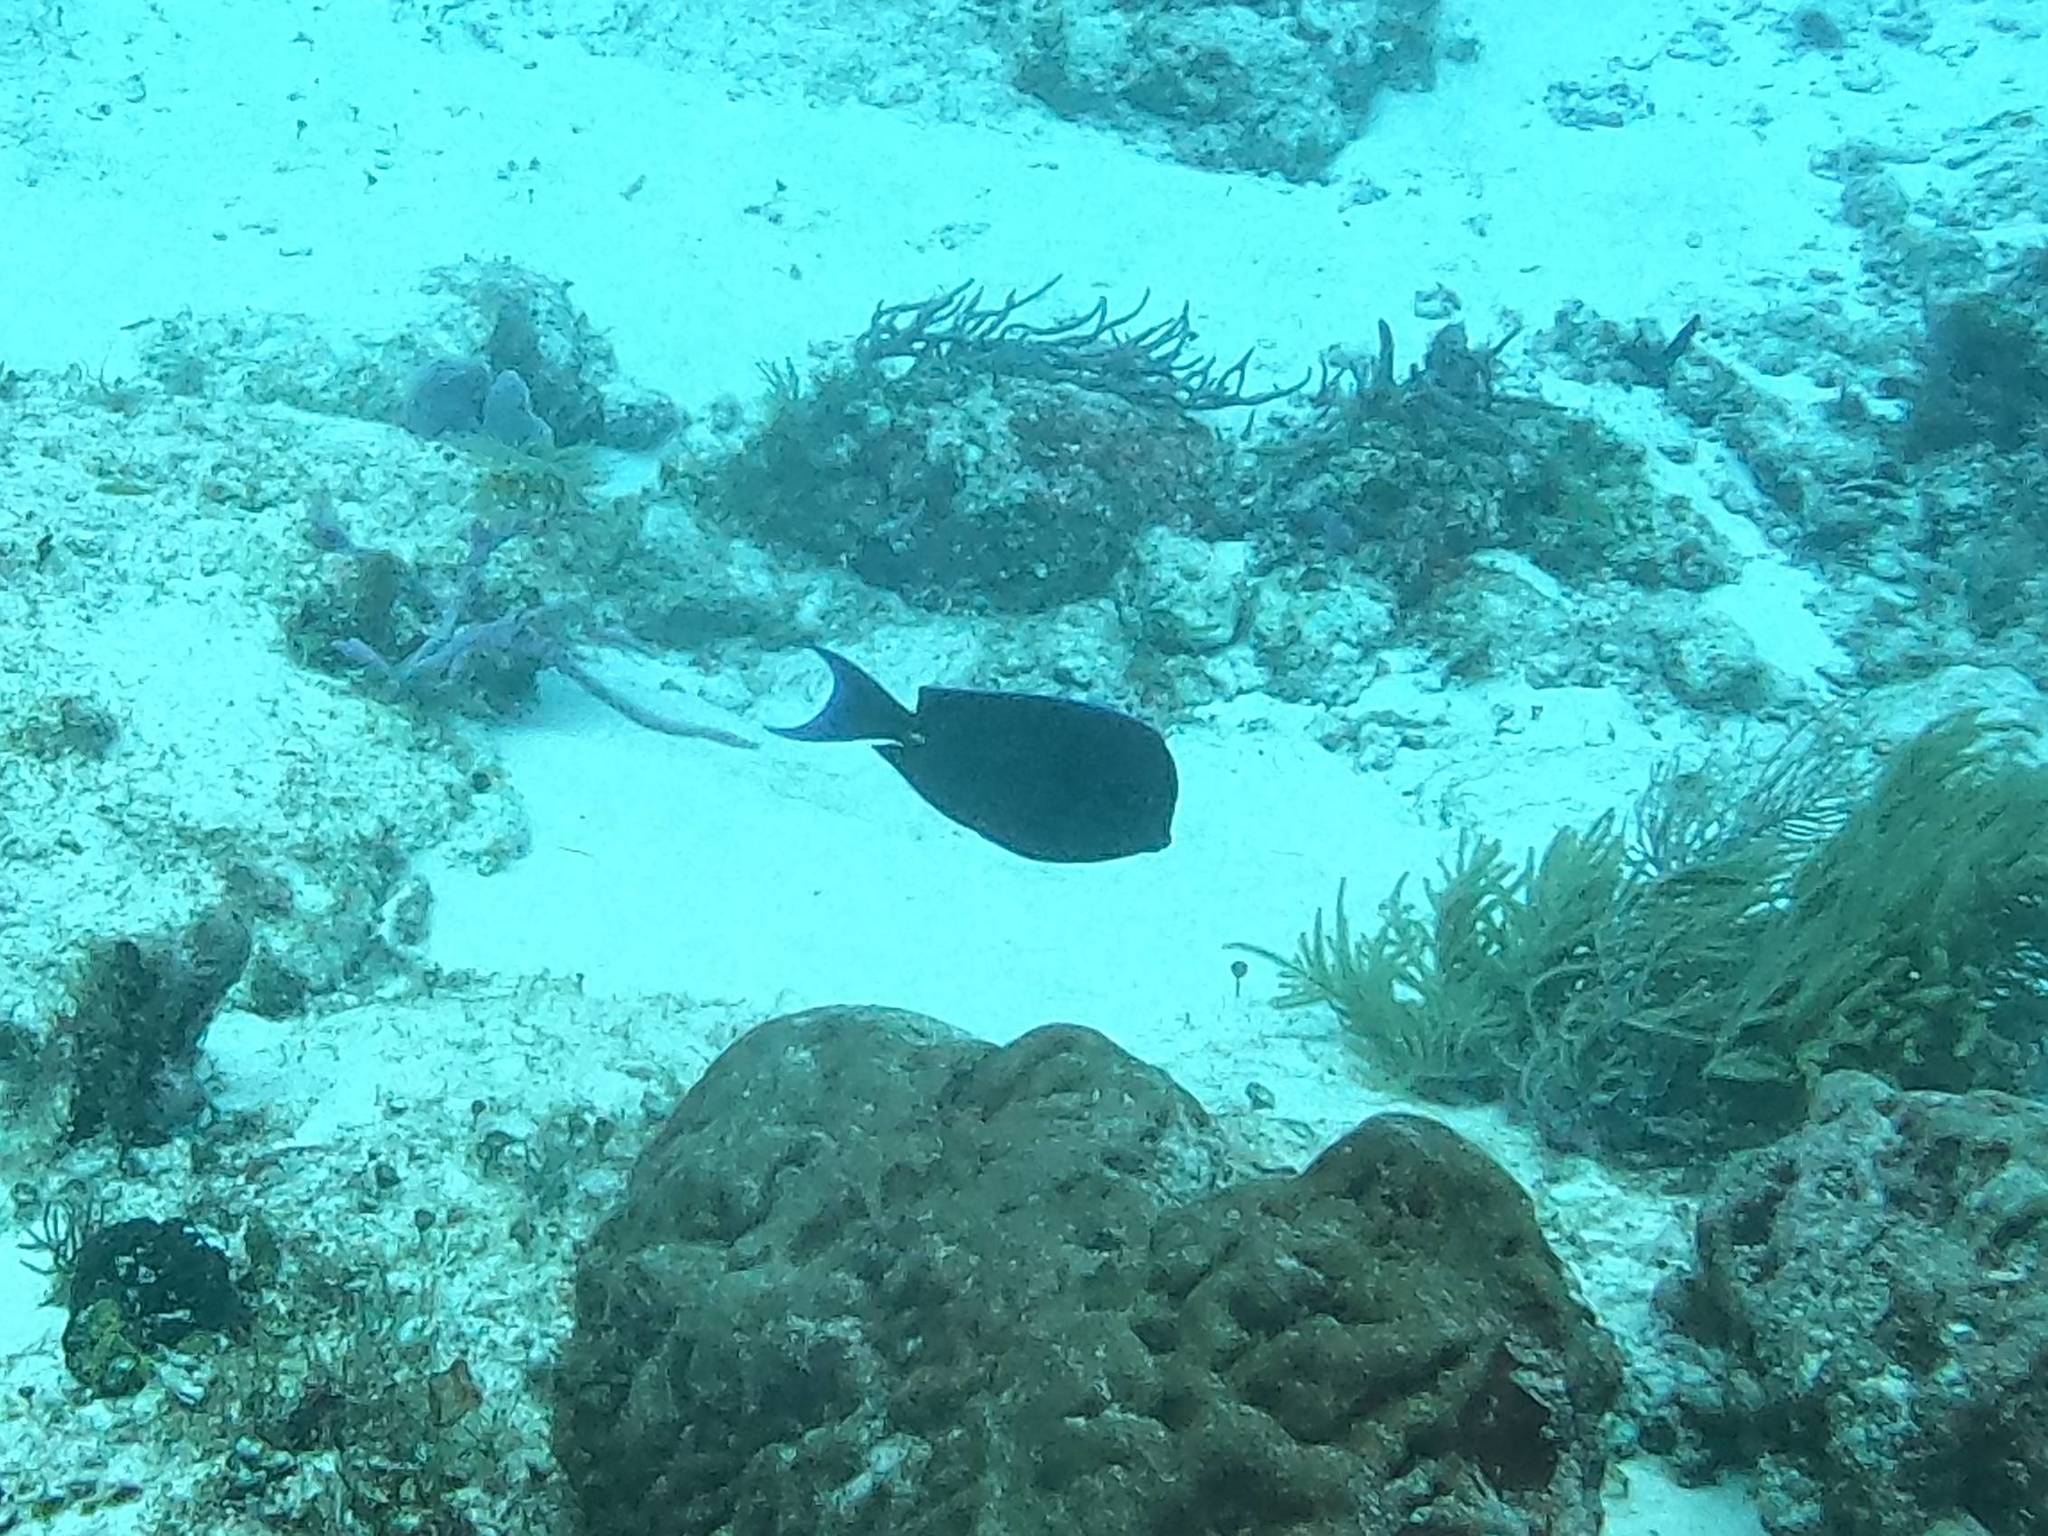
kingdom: Animalia
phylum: Chordata
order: Perciformes
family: Acanthuridae
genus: Acanthurus
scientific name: Acanthurus coeruleus
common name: Blue tang
